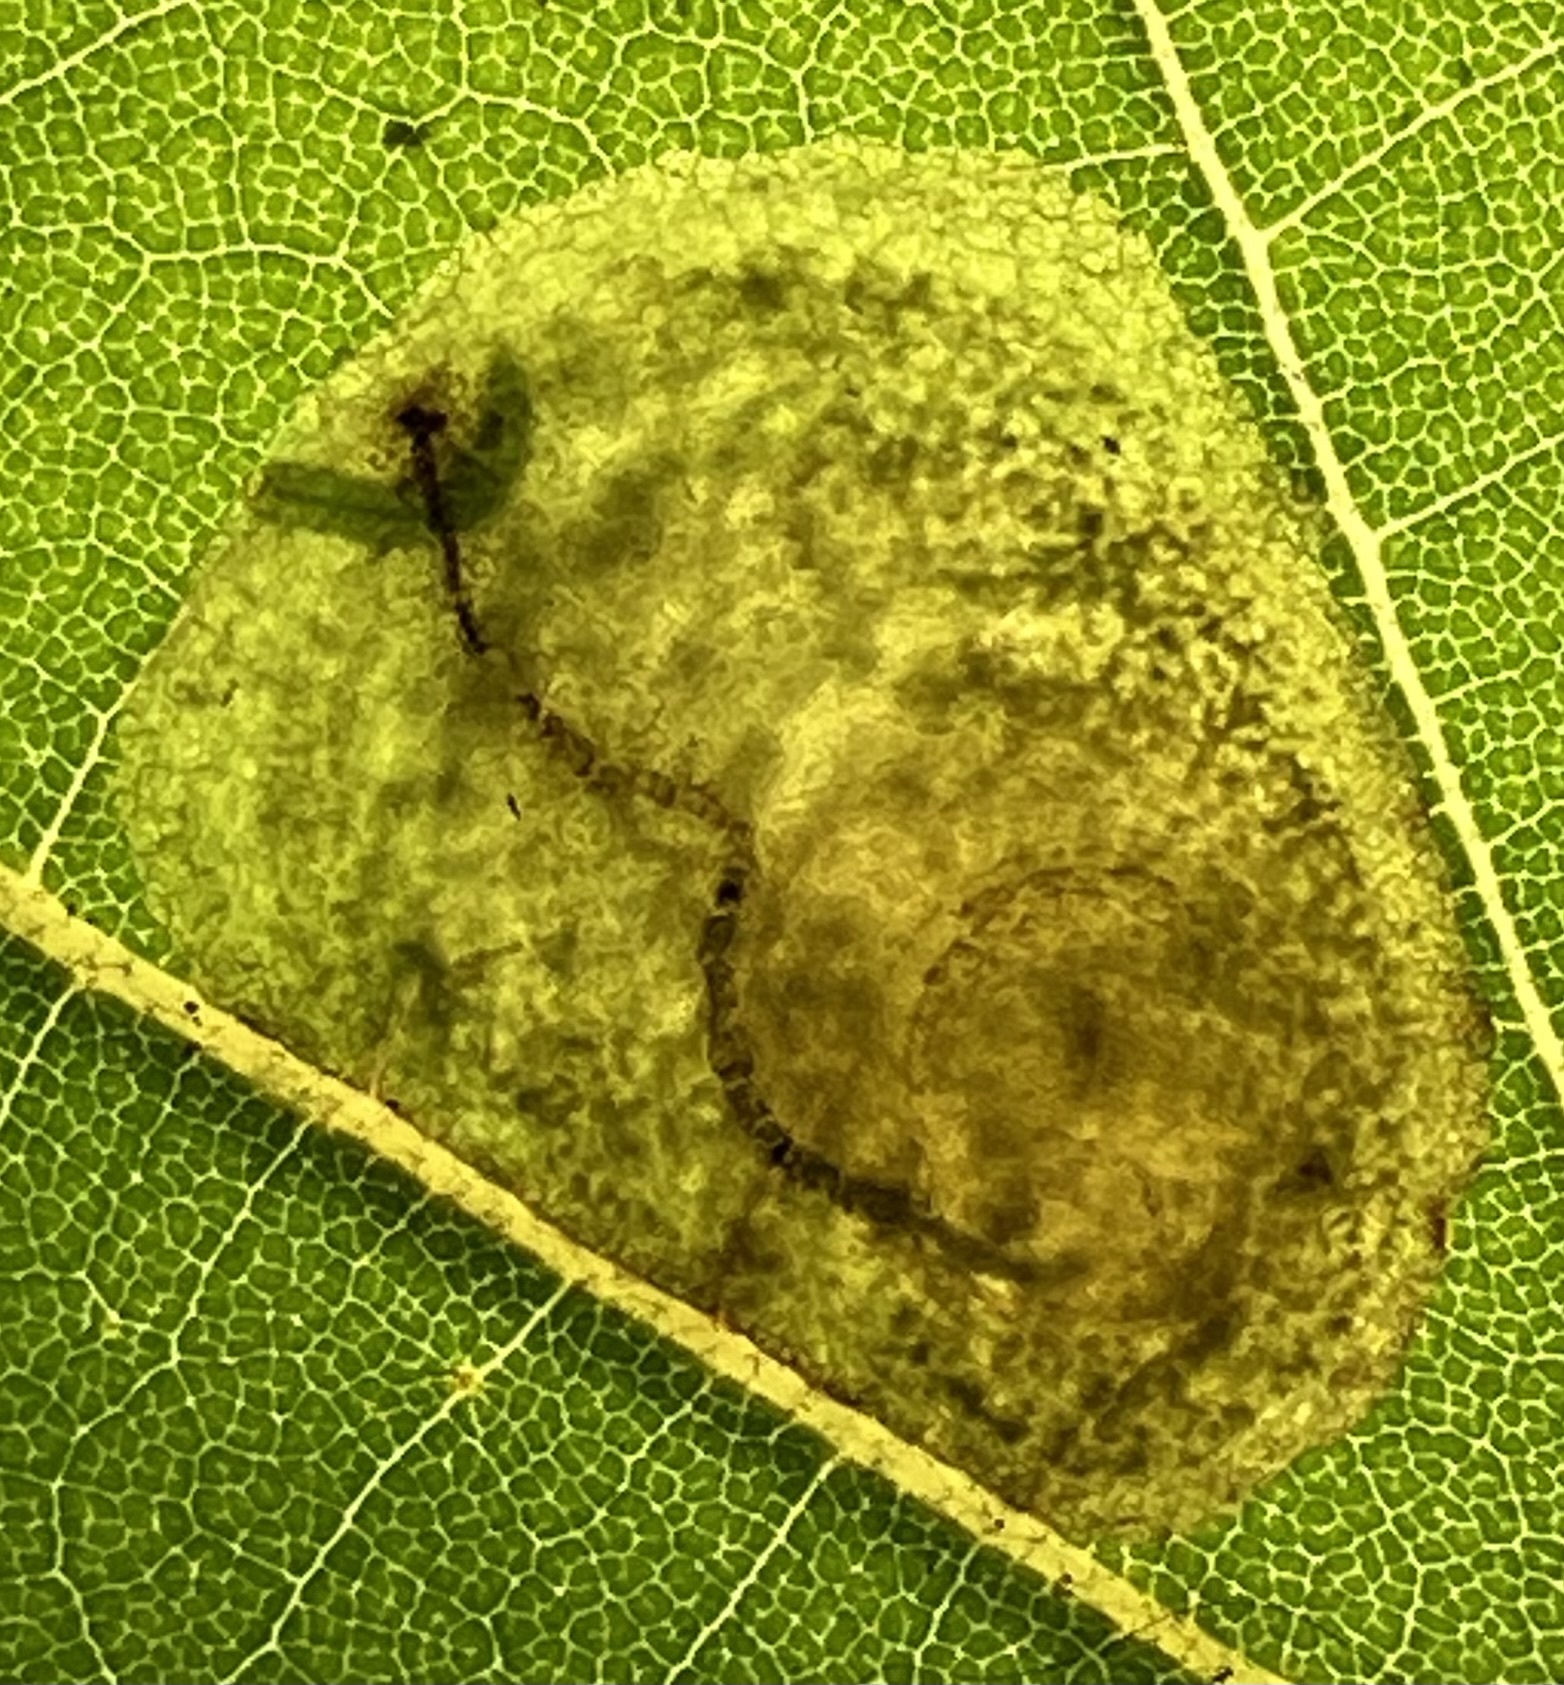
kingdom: Animalia
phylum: Arthropoda
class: Insecta
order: Lepidoptera
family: Nepticulidae
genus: Ectoedemia
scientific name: Ectoedemia platanella
